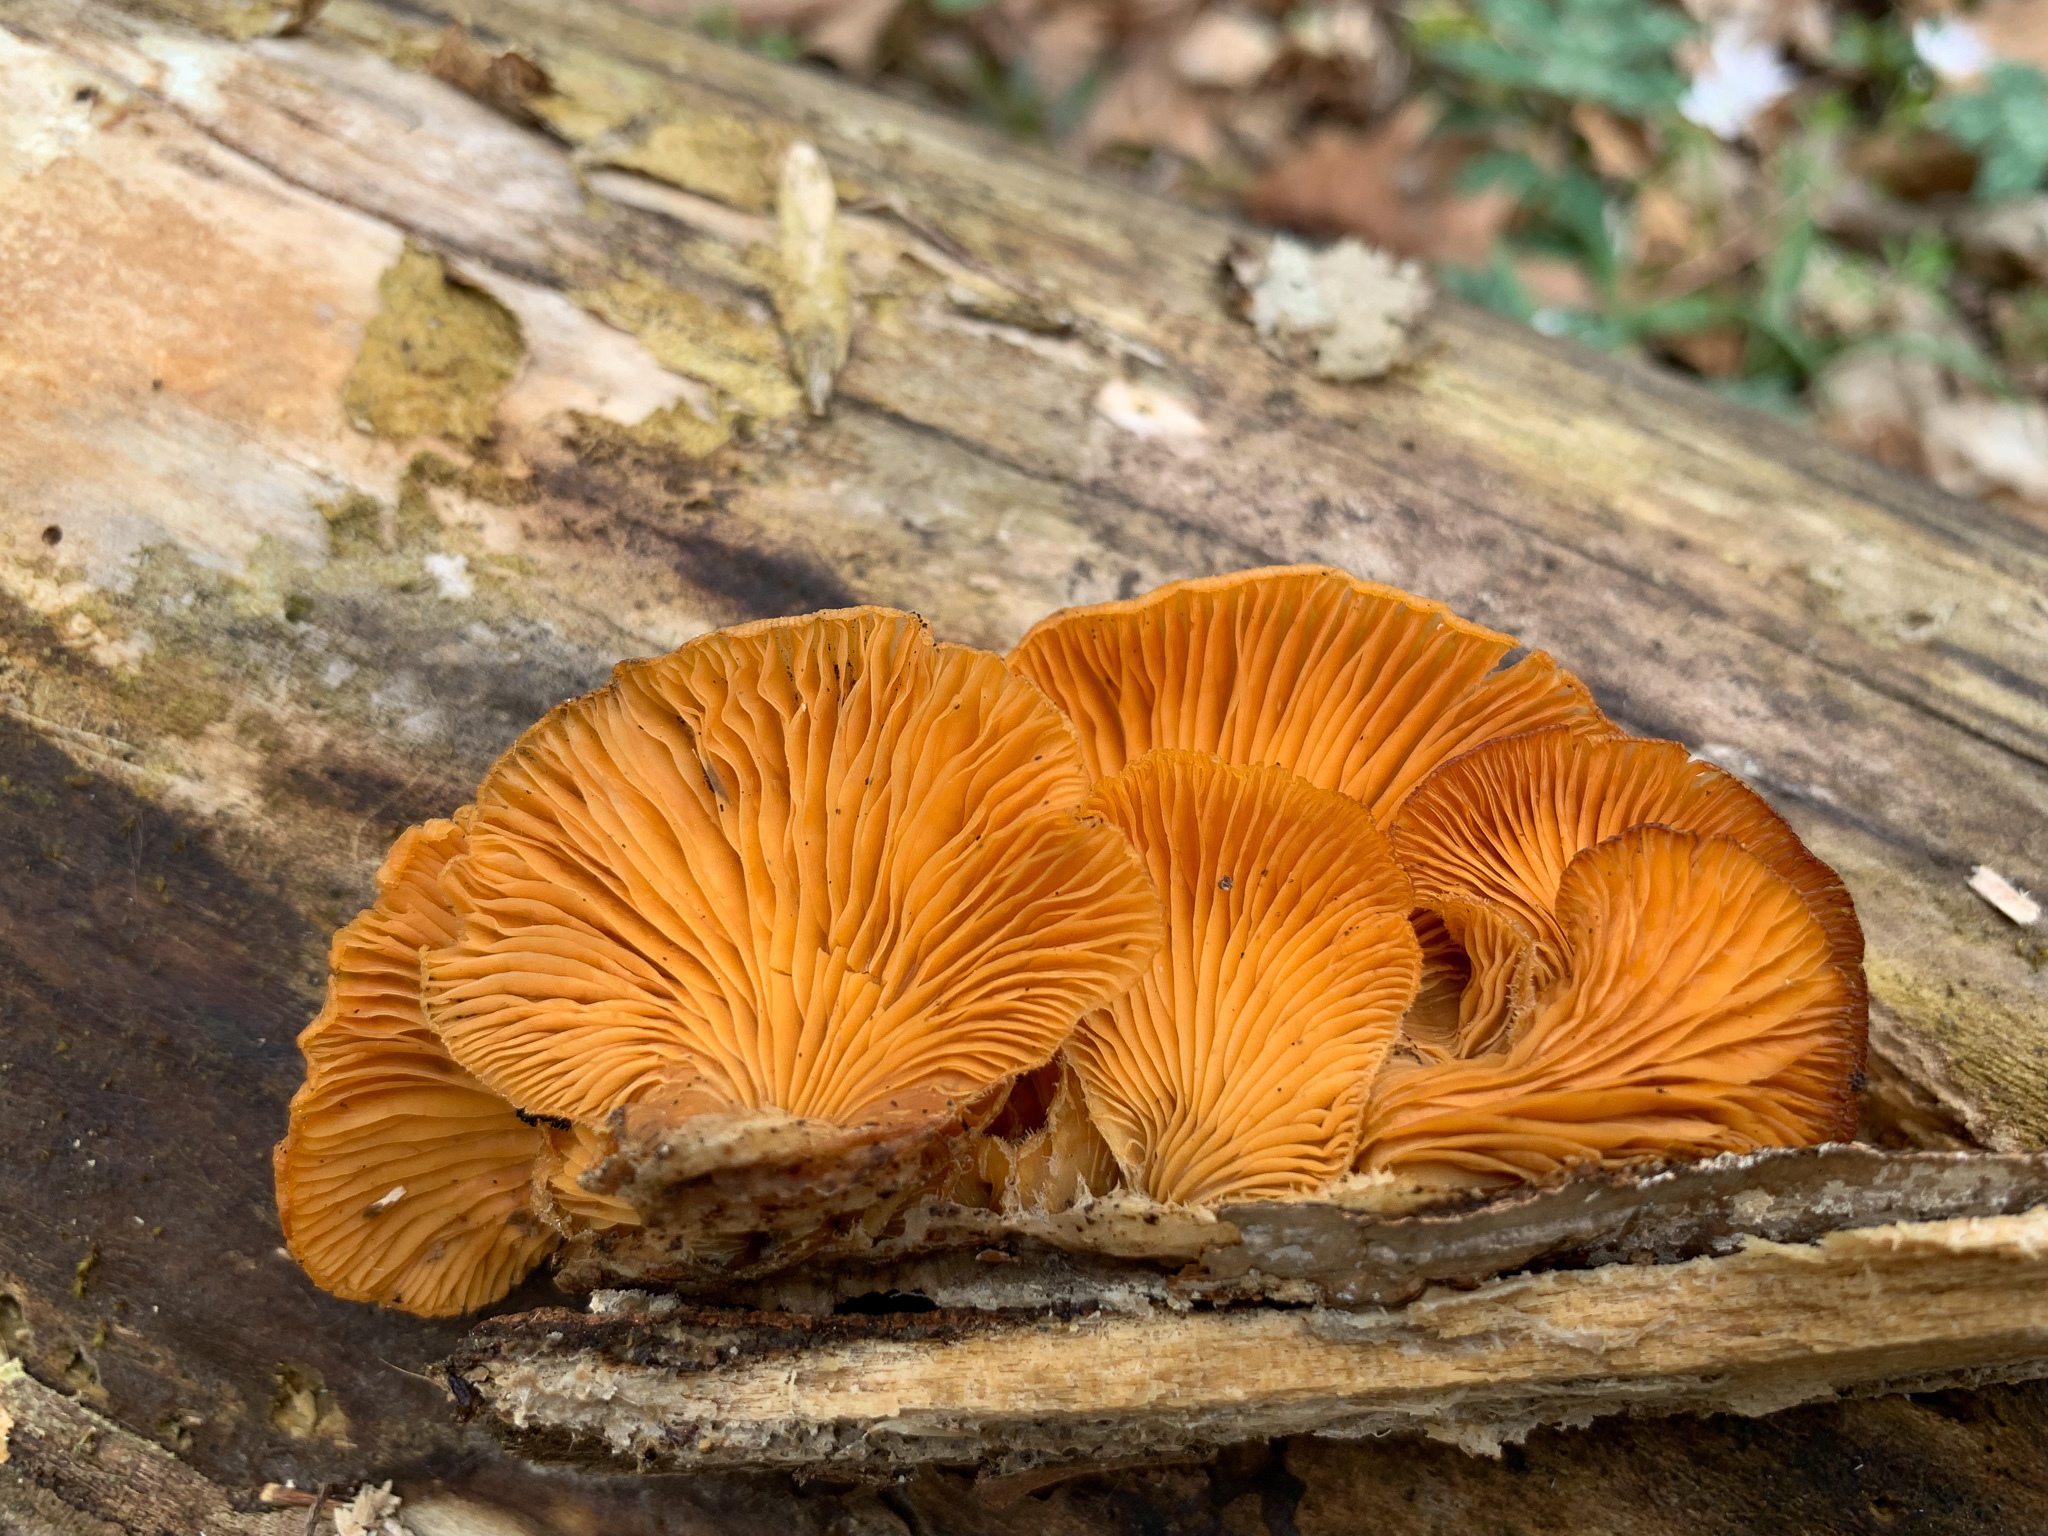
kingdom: Fungi
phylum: Basidiomycota
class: Agaricomycetes
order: Agaricales
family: Phyllotopsidaceae
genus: Phyllotopsis
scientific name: Phyllotopsis nidulans
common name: Orange mock oyster
